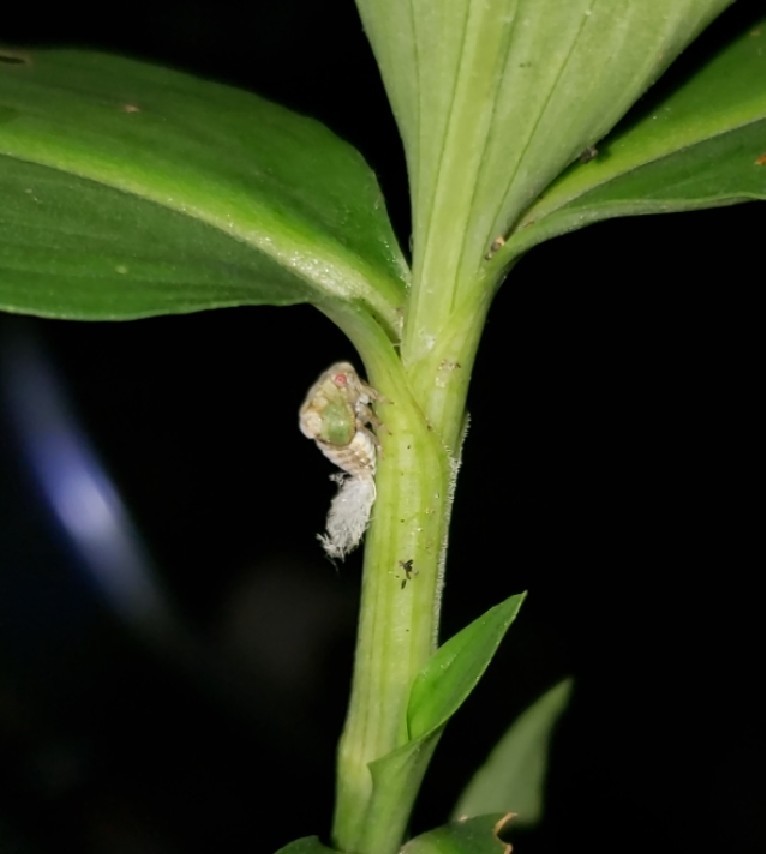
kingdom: Animalia
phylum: Arthropoda
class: Insecta
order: Hemiptera
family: Acanaloniidae
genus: Acanalonia
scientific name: Acanalonia conica
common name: Green cone-headed planthopper
